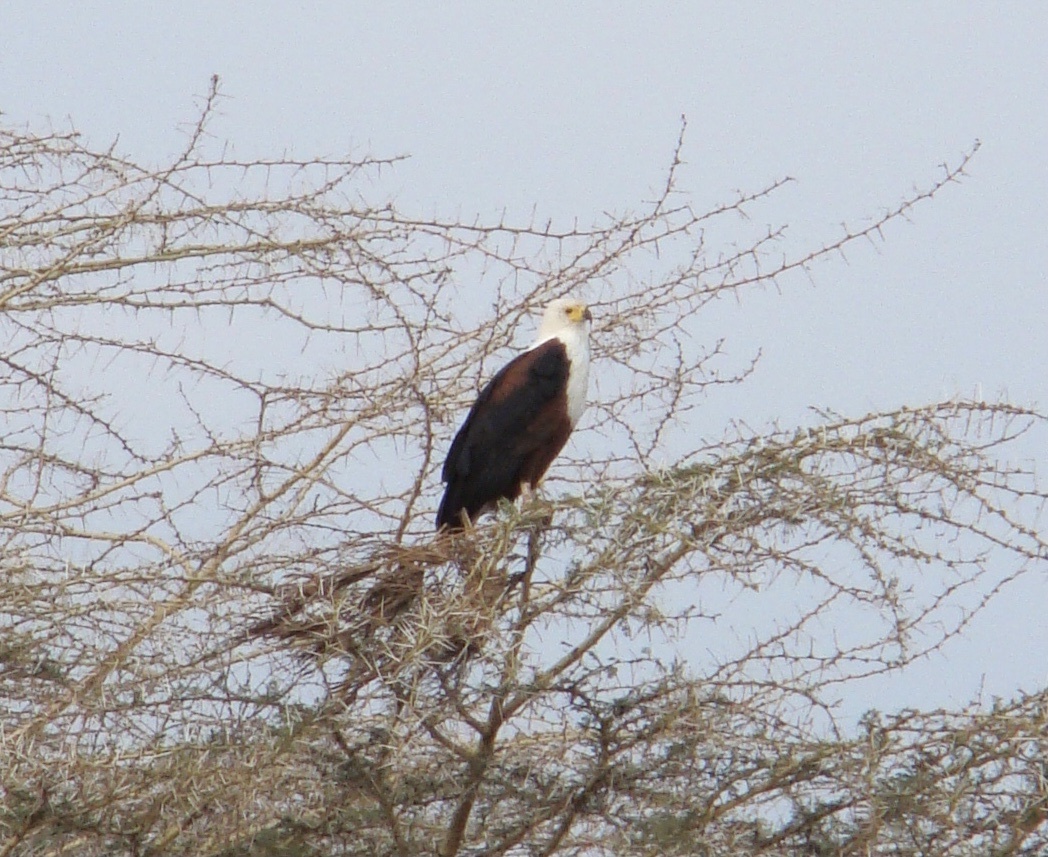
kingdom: Animalia
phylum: Chordata
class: Aves
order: Accipitriformes
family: Accipitridae
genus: Haliaeetus
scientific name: Haliaeetus vocifer
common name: African fish eagle
